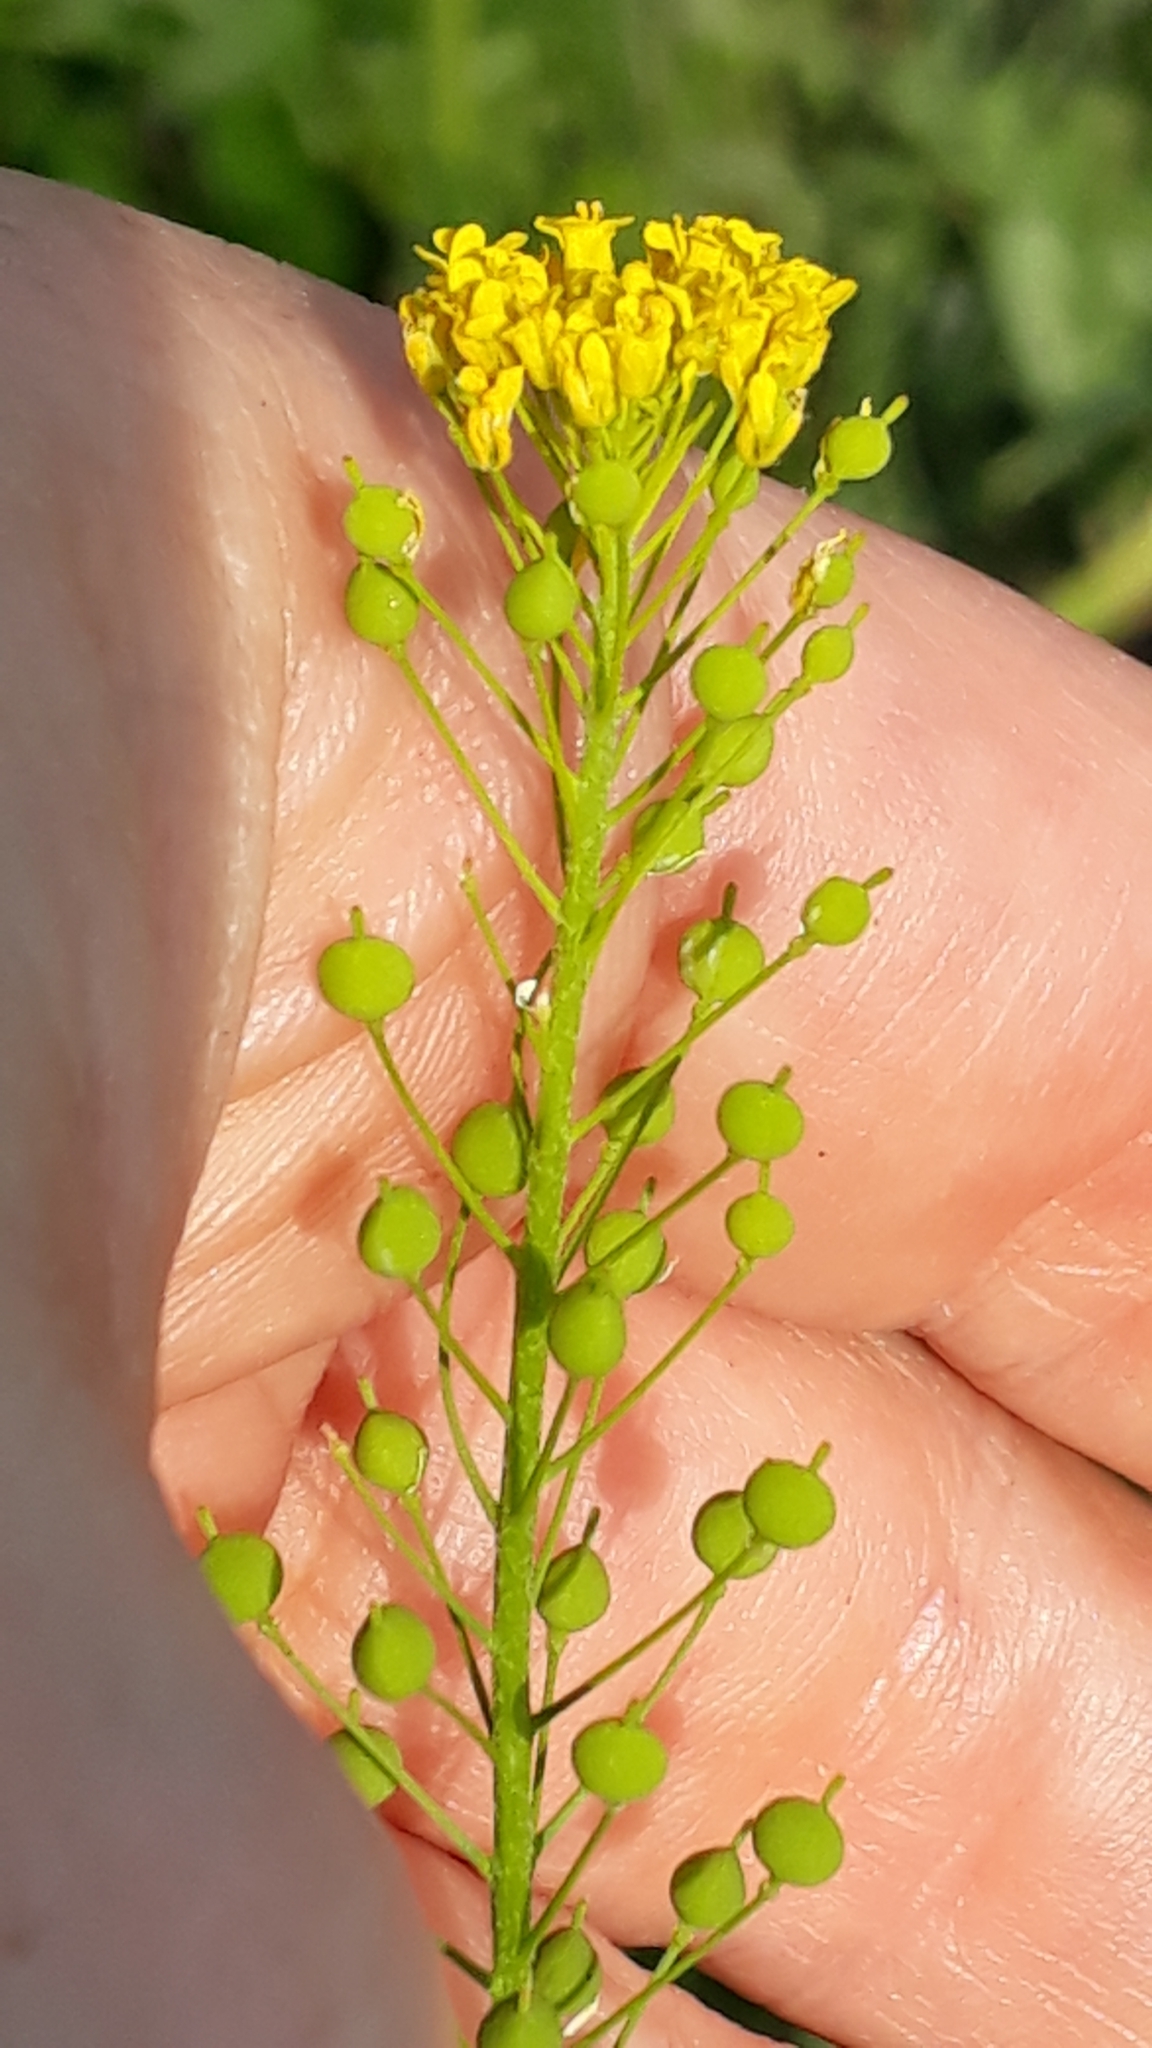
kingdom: Plantae
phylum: Tracheophyta
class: Magnoliopsida
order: Brassicales
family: Brassicaceae
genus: Neslia
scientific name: Neslia paniculata
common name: Ball mustard
